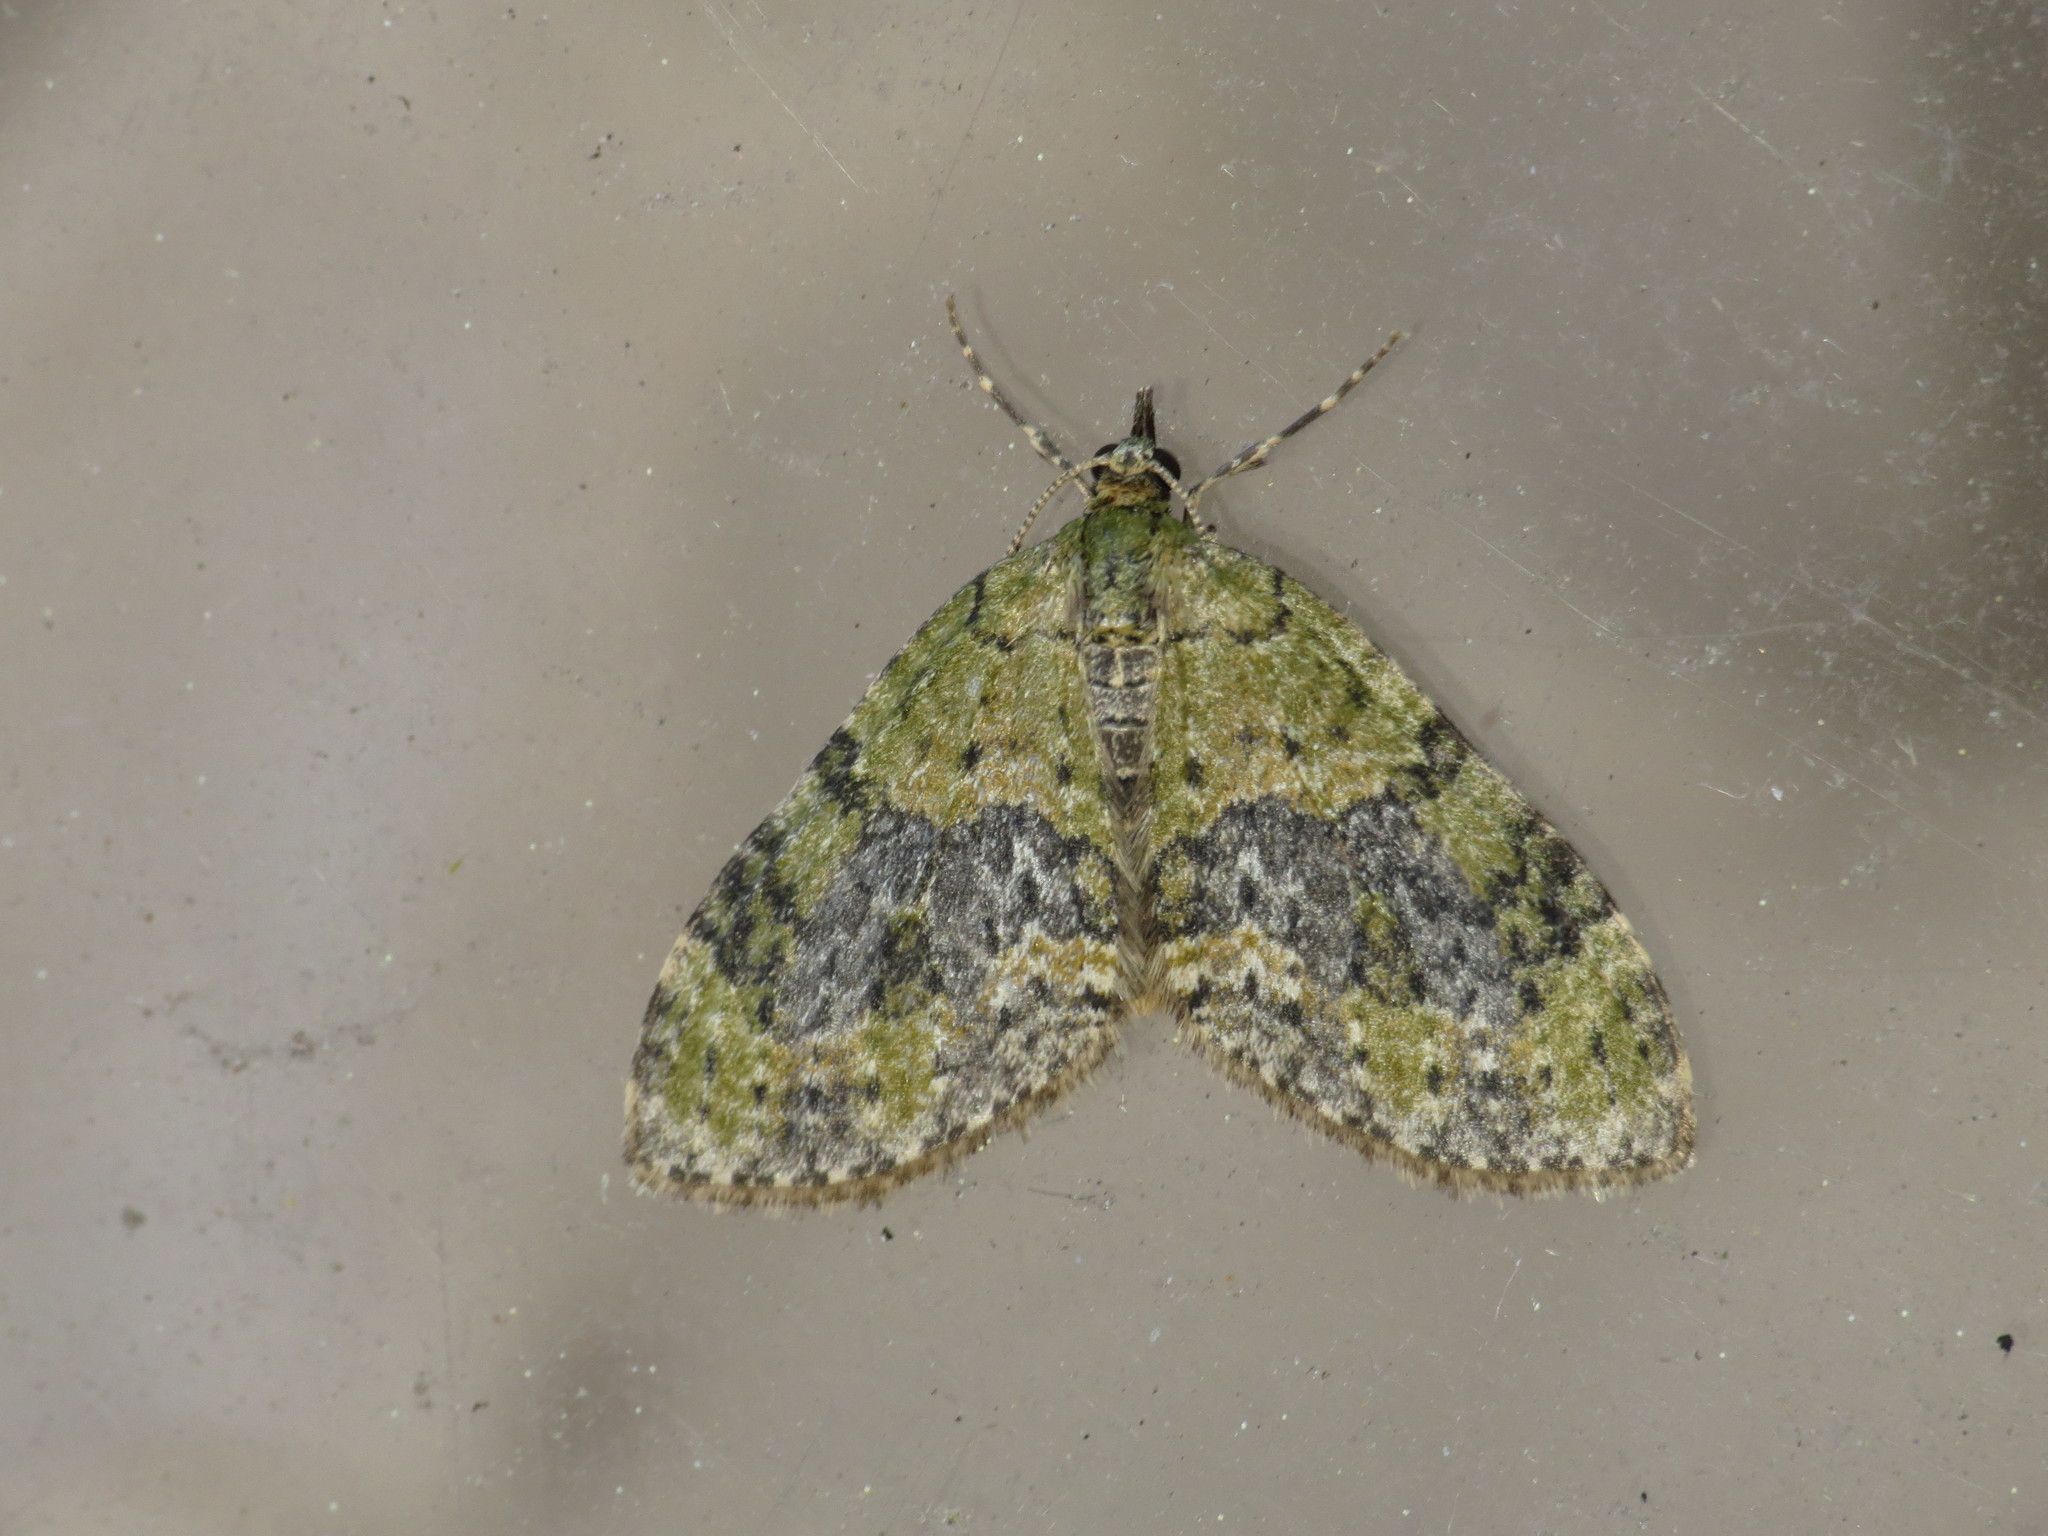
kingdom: Animalia
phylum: Arthropoda
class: Insecta
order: Lepidoptera
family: Geometridae
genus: Acasis
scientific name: Acasis viretata
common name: Yellow-barred brindle
